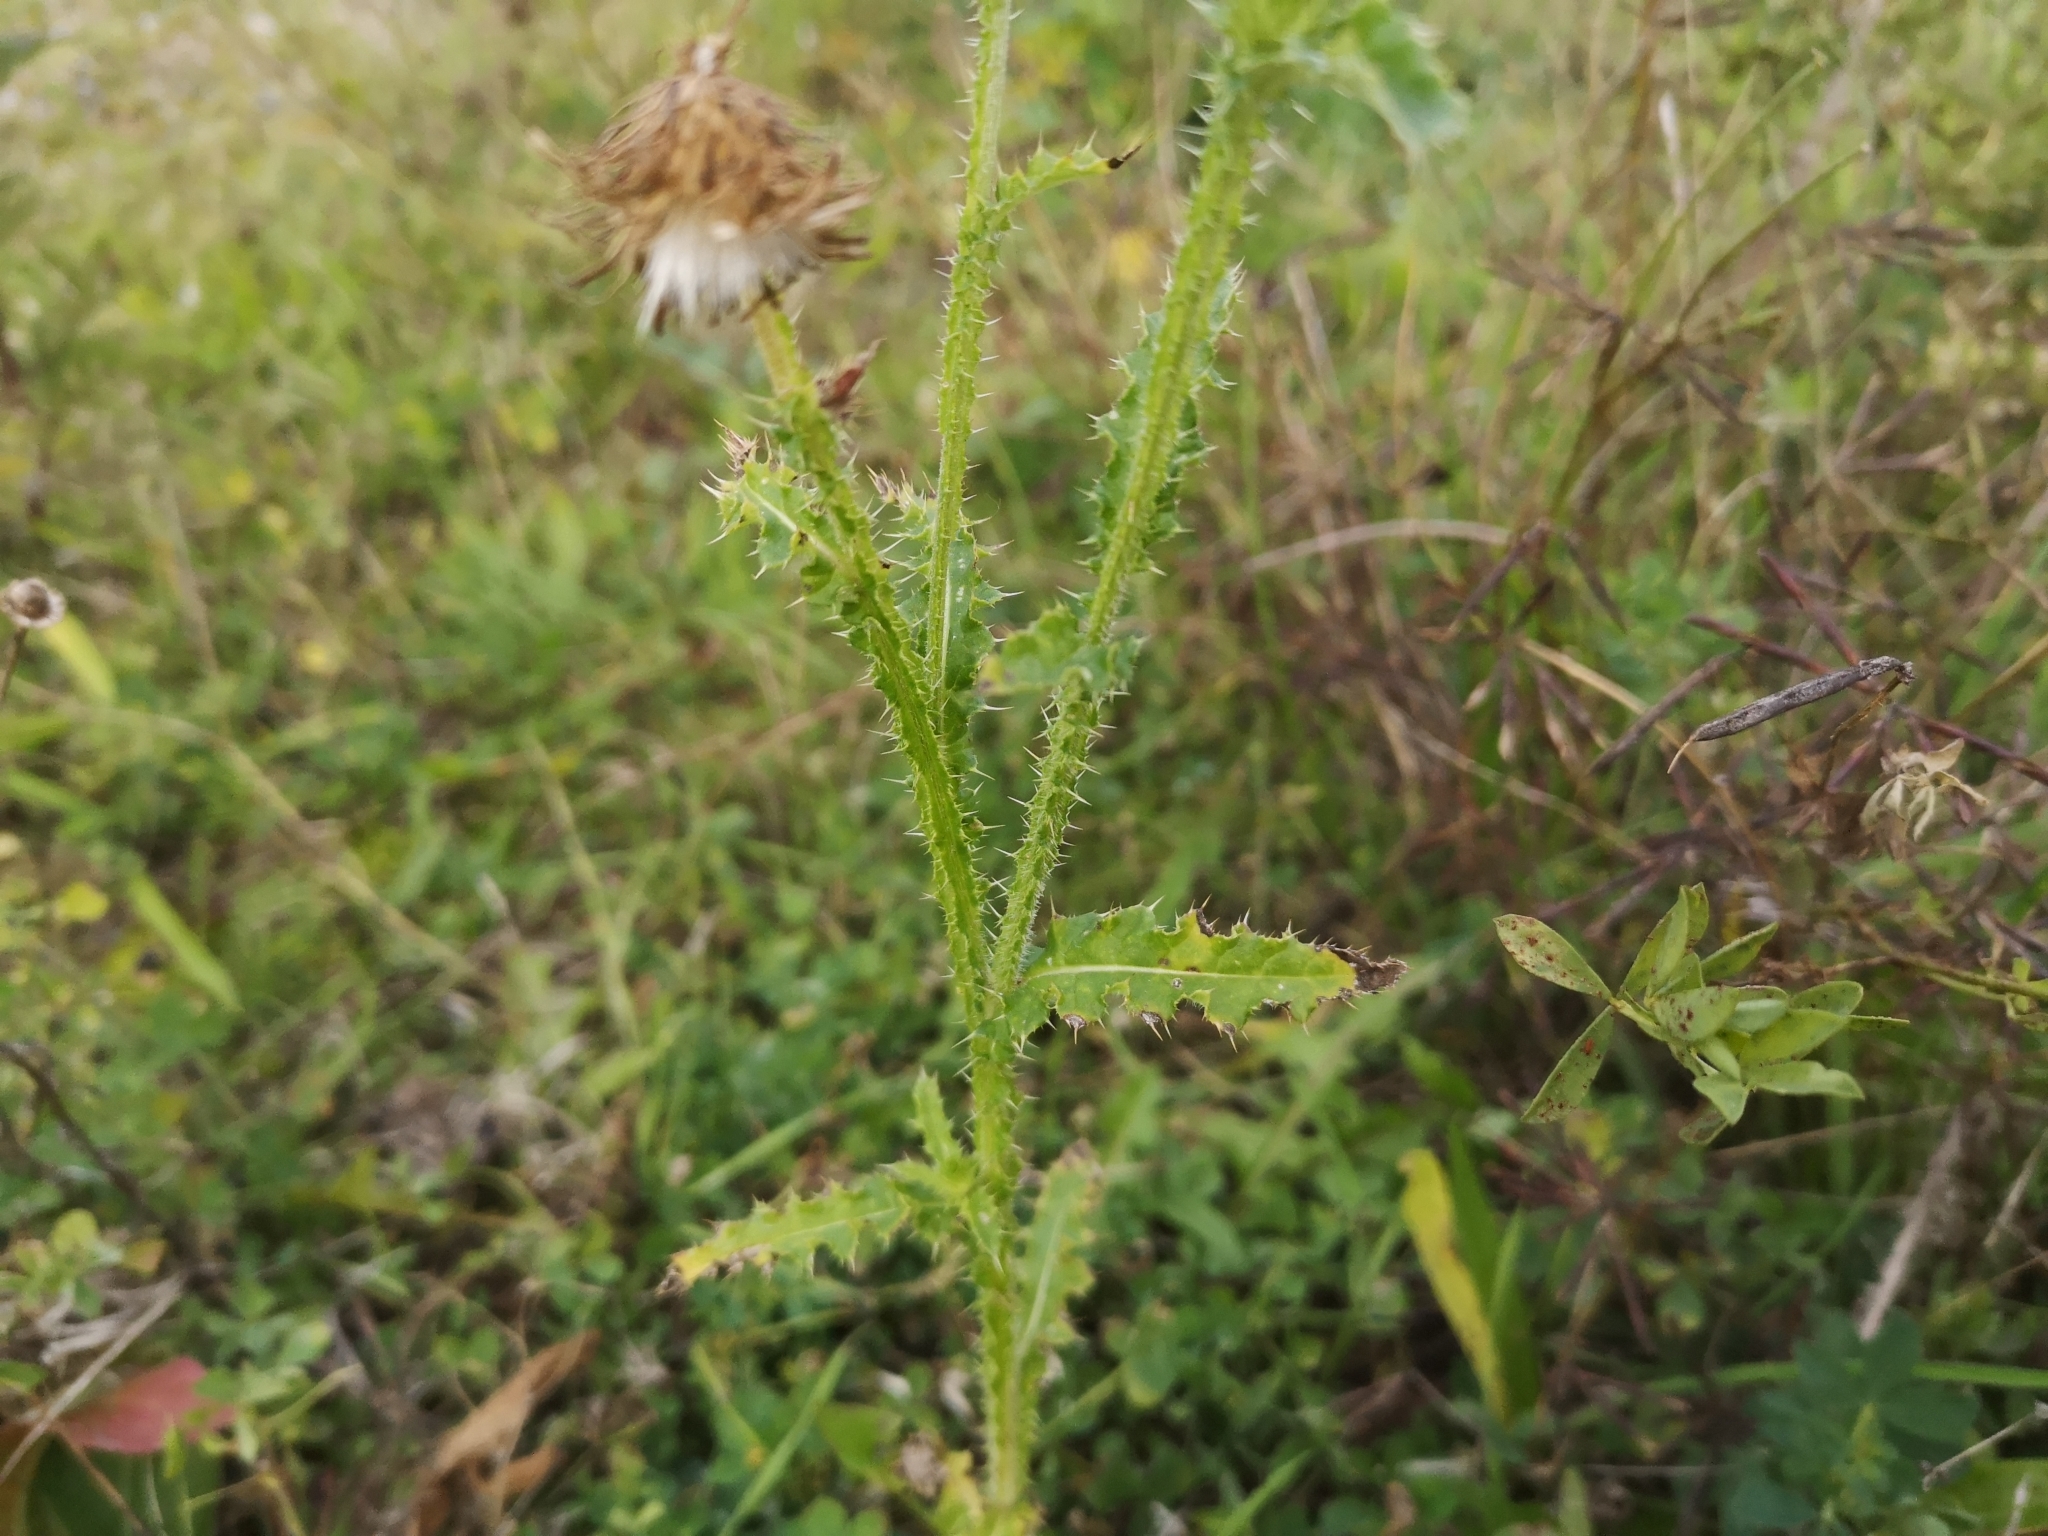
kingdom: Plantae
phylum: Tracheophyta
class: Magnoliopsida
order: Asterales
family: Asteraceae
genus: Carduus
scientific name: Carduus crispus
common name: Welted thistle
